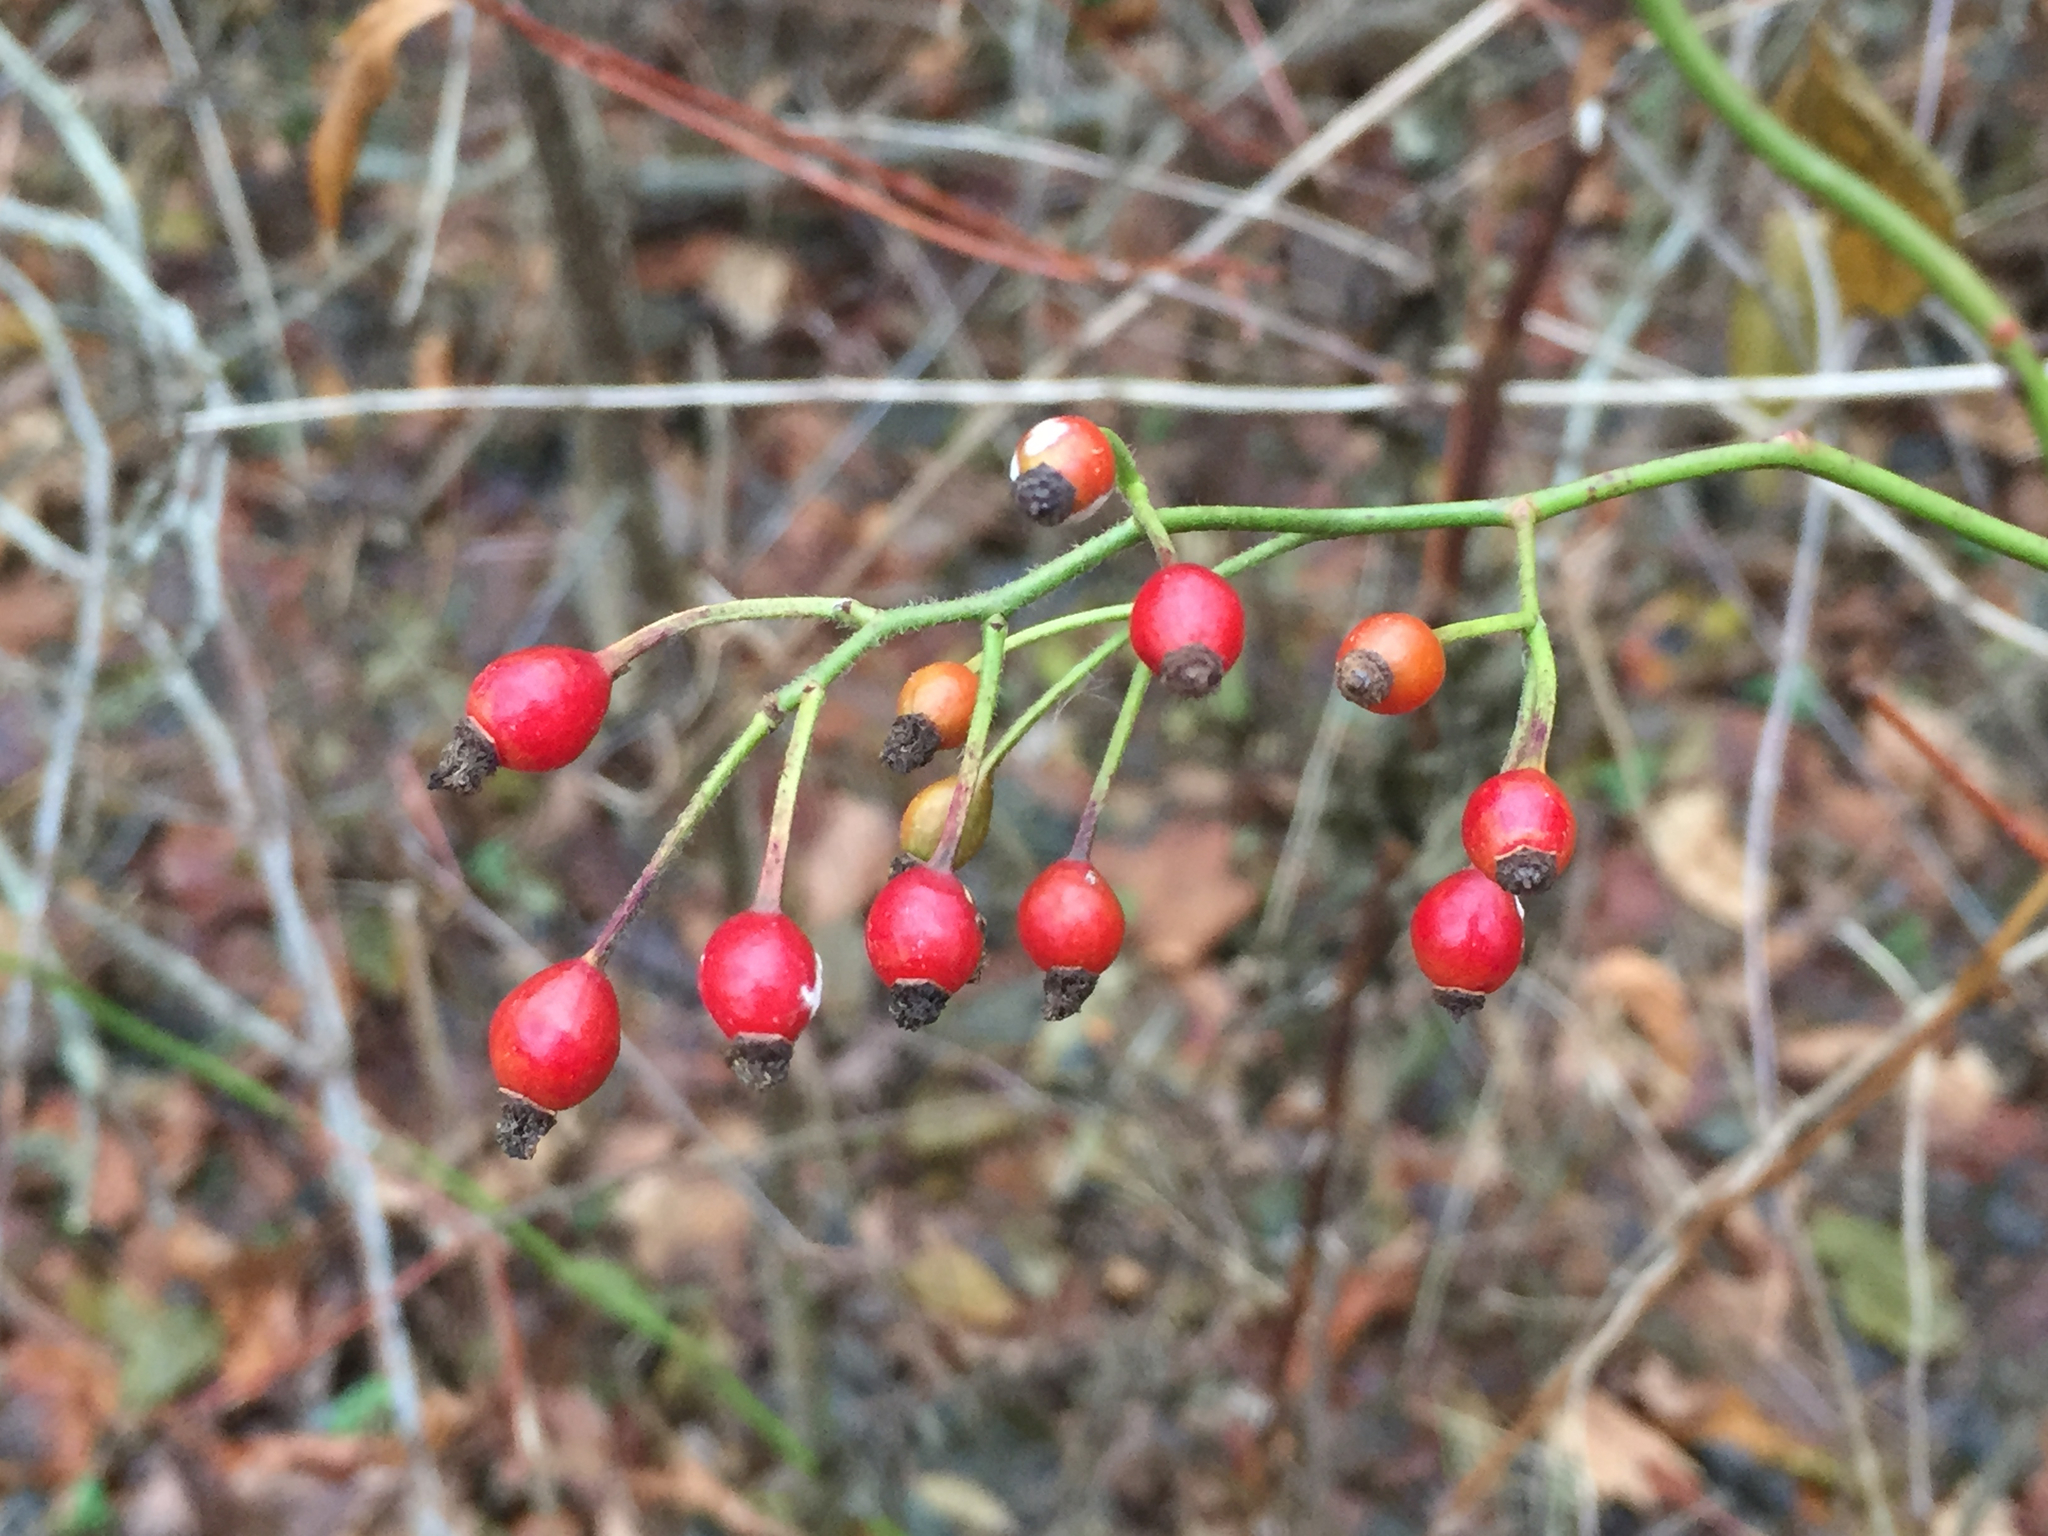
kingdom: Plantae
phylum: Tracheophyta
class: Magnoliopsida
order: Rosales
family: Rosaceae
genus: Rosa
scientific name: Rosa multiflora
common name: Multiflora rose
